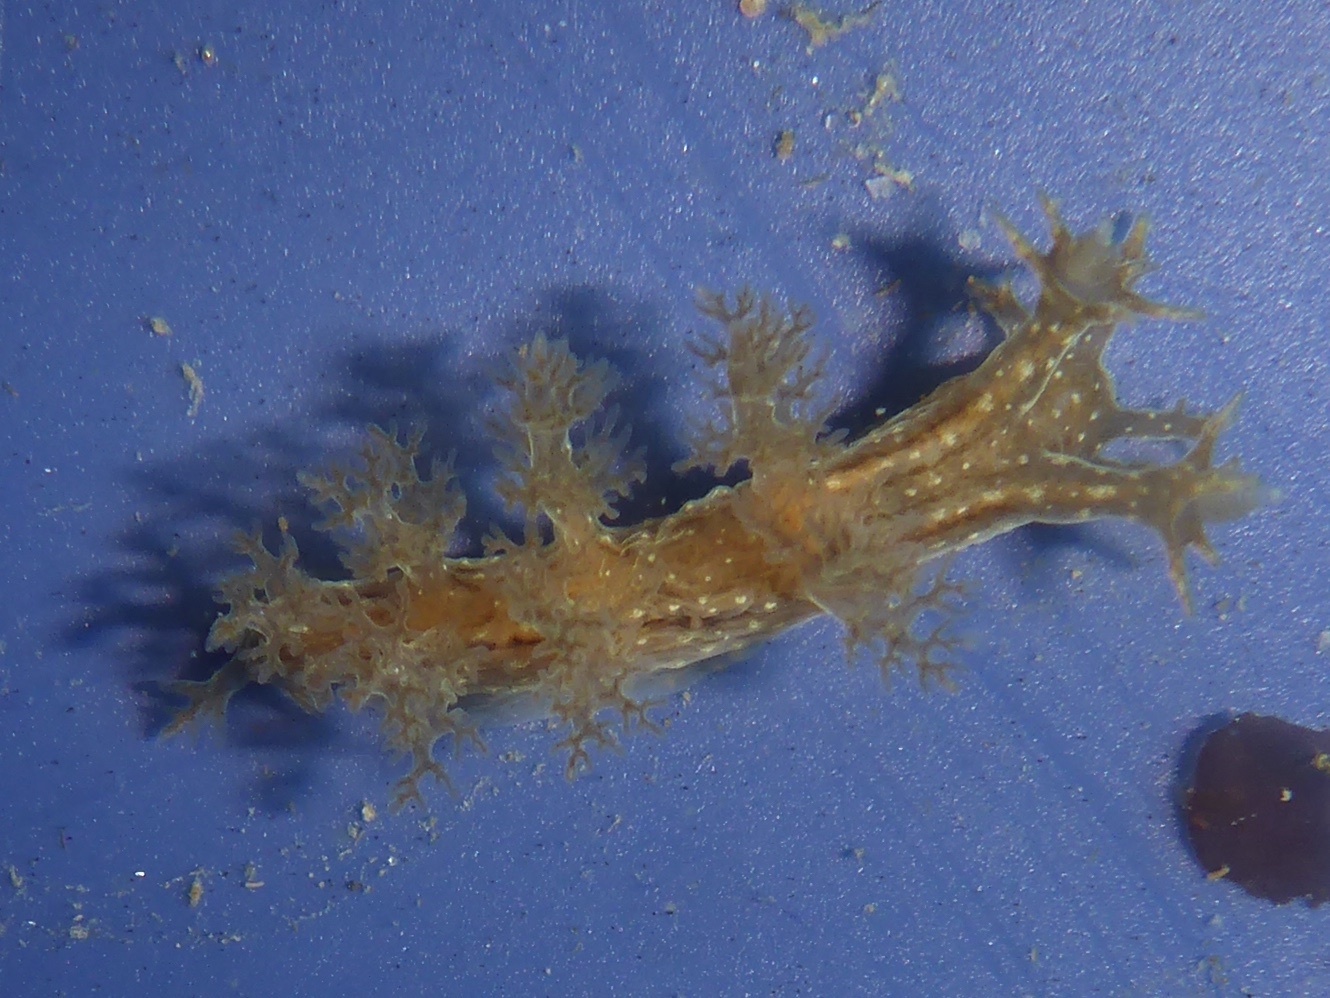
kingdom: Animalia
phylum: Mollusca
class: Gastropoda
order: Nudibranchia
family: Dendronotidae
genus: Dendronotus
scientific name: Dendronotus subramosus
